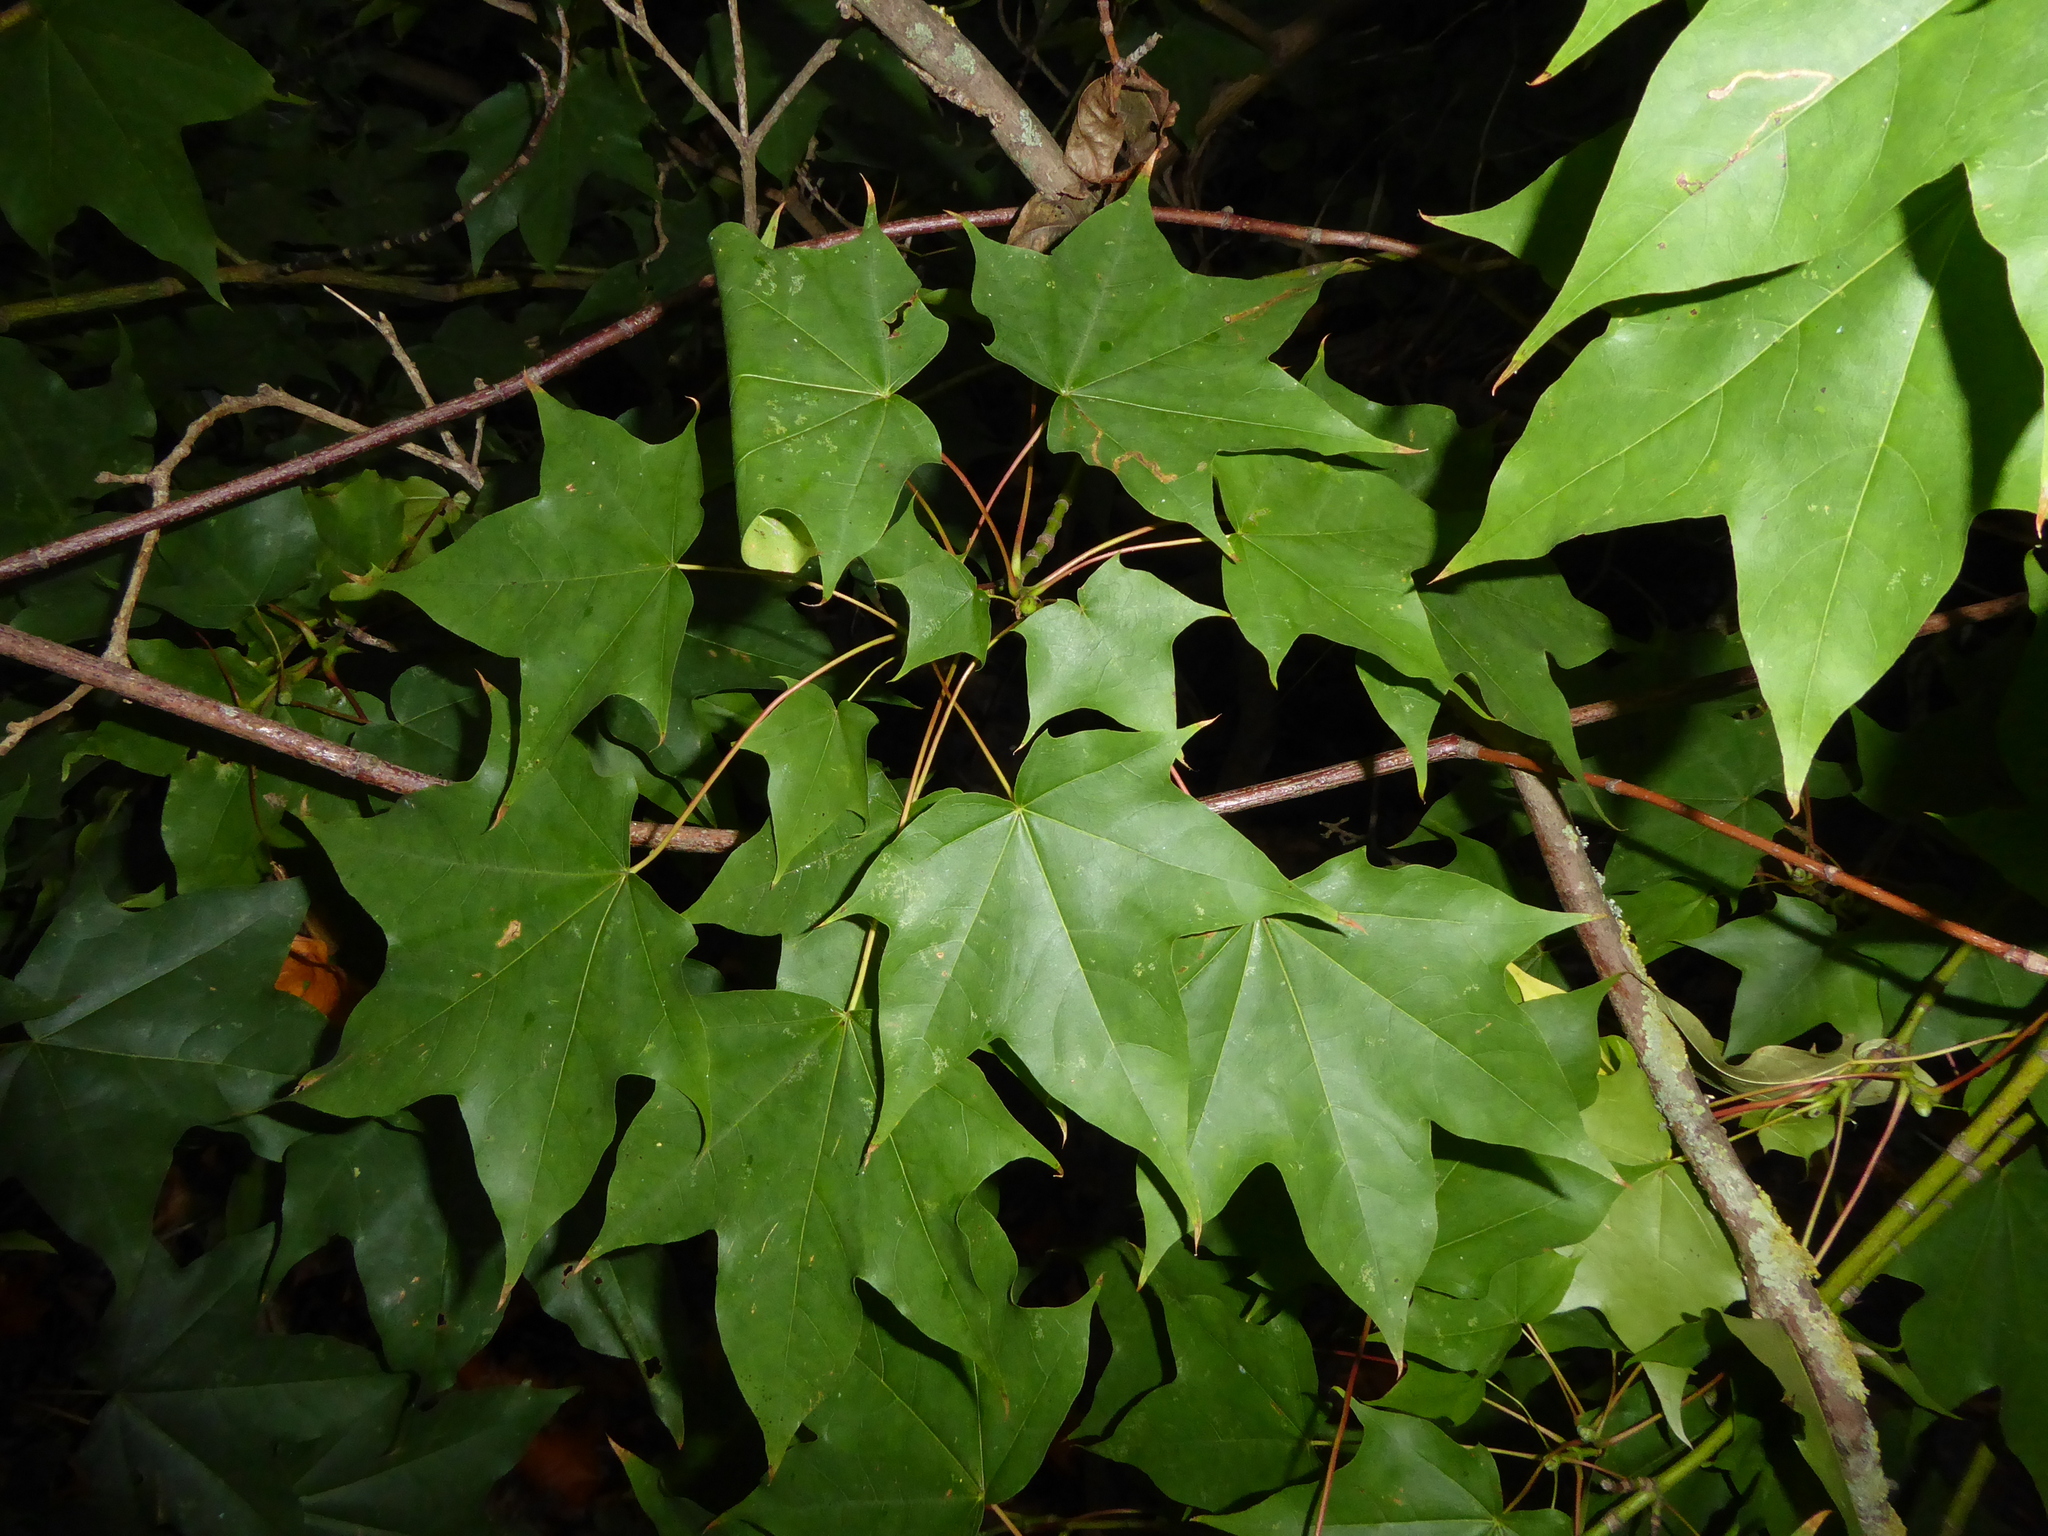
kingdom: Plantae
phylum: Tracheophyta
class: Magnoliopsida
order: Sapindales
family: Sapindaceae
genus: Acer
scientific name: Acer cappadocicum
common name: Cappadocian maple
